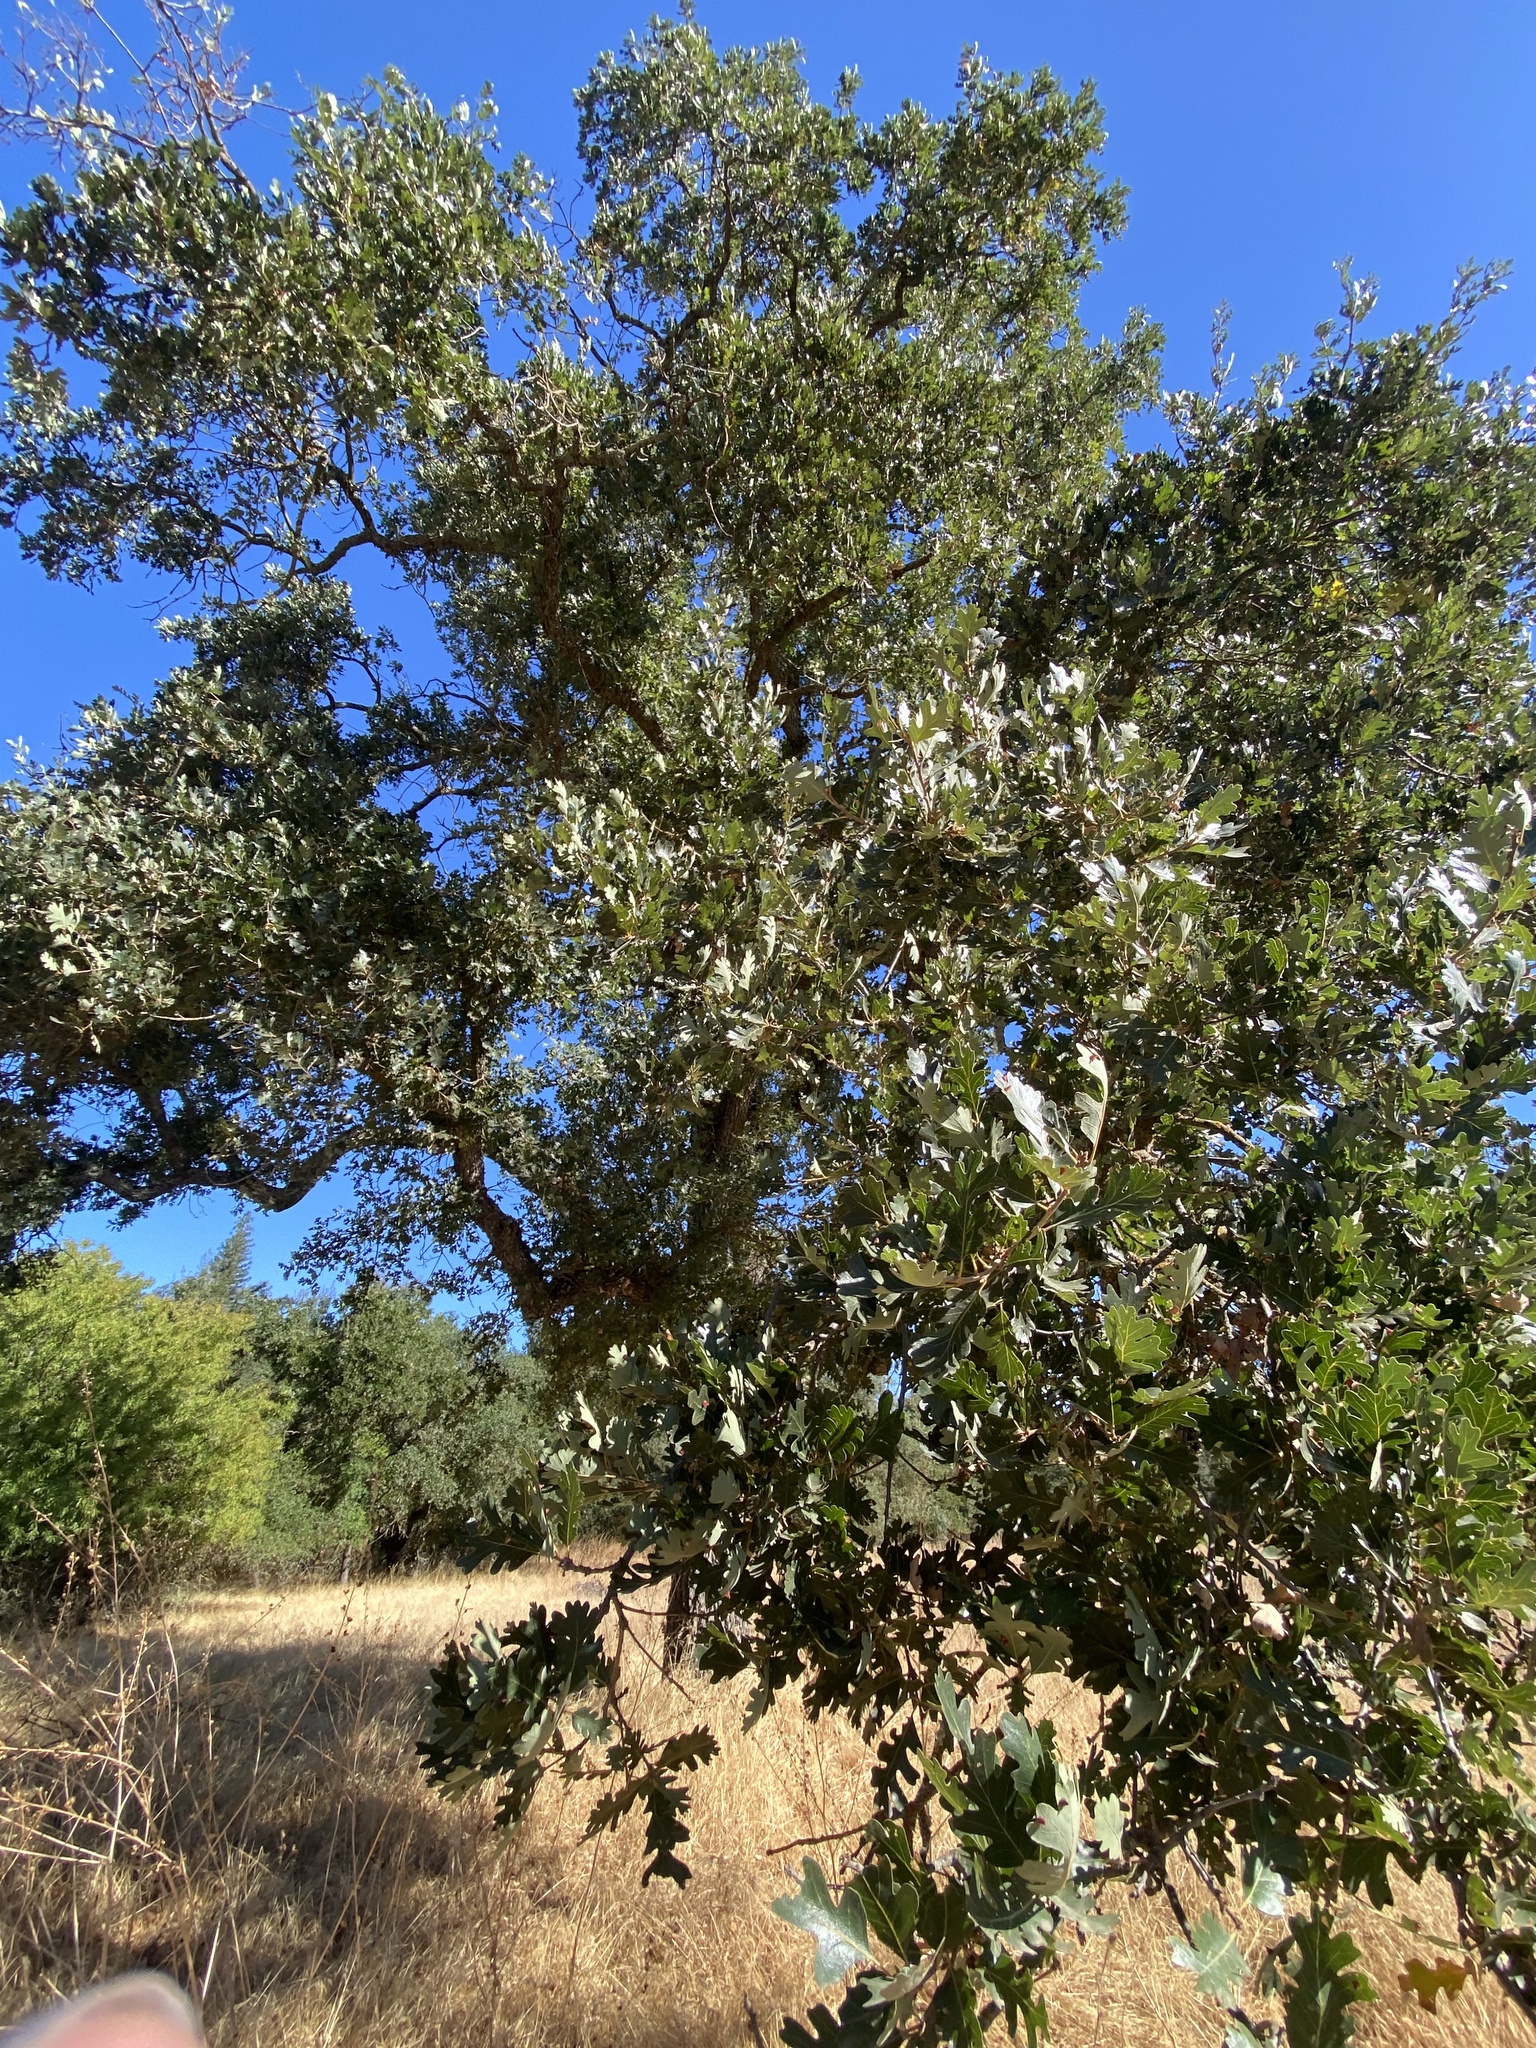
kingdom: Plantae
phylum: Tracheophyta
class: Magnoliopsida
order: Fagales
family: Fagaceae
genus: Quercus
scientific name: Quercus lobata
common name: Valley oak
